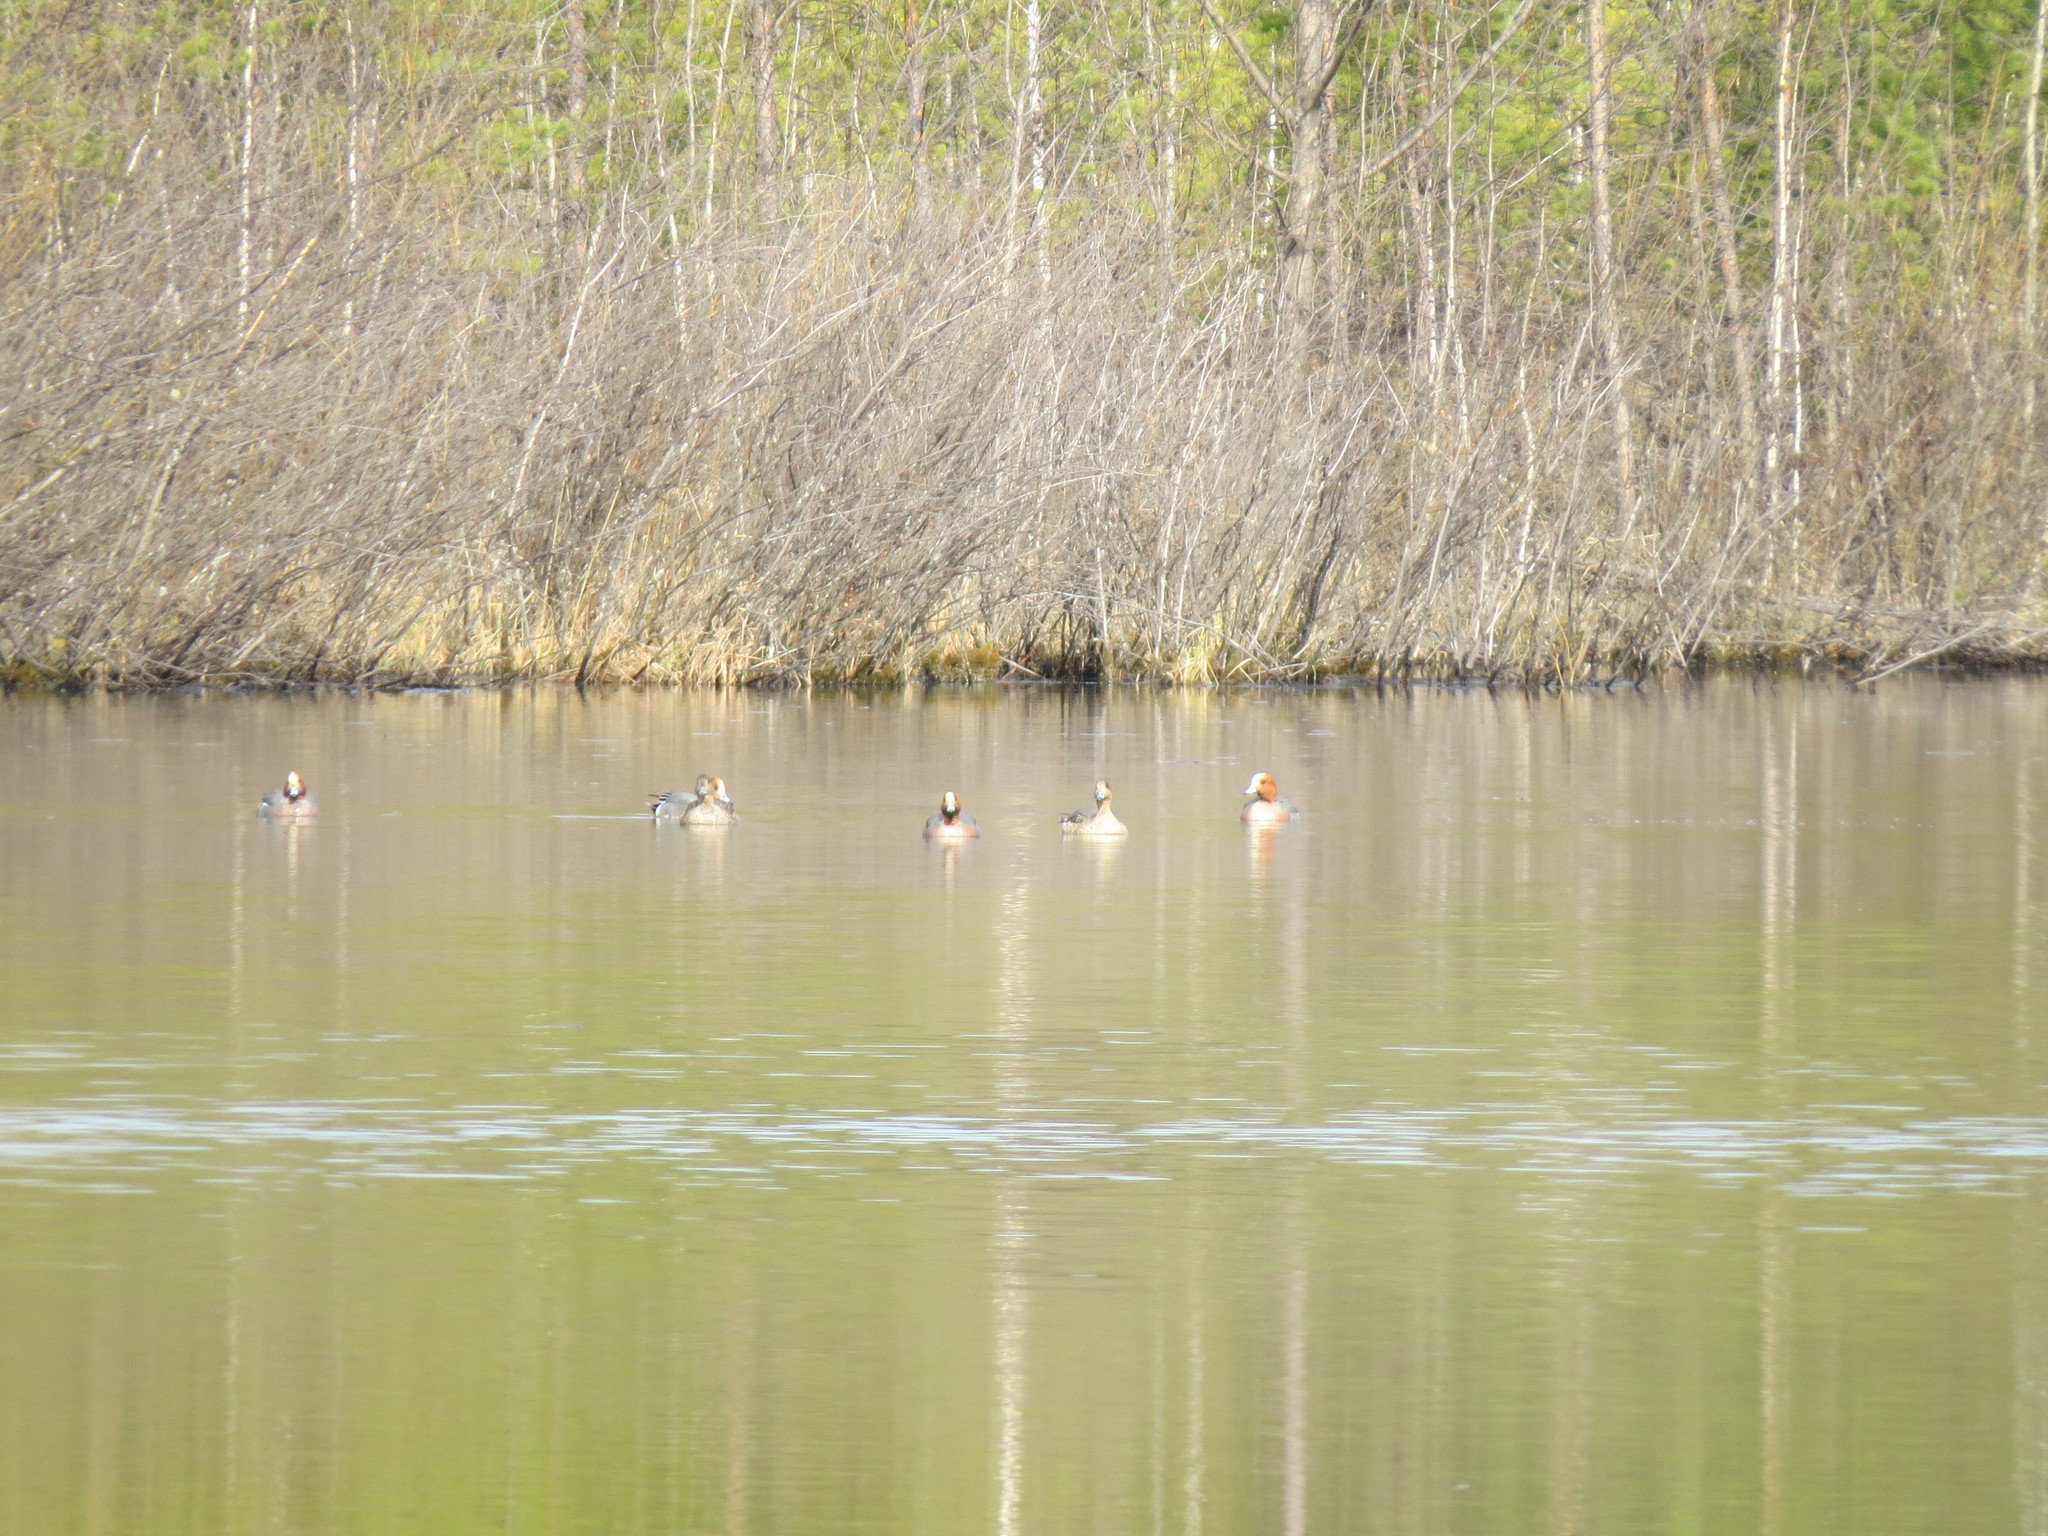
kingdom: Animalia
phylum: Chordata
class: Aves
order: Anseriformes
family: Anatidae
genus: Mareca
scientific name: Mareca penelope
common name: Eurasian wigeon
